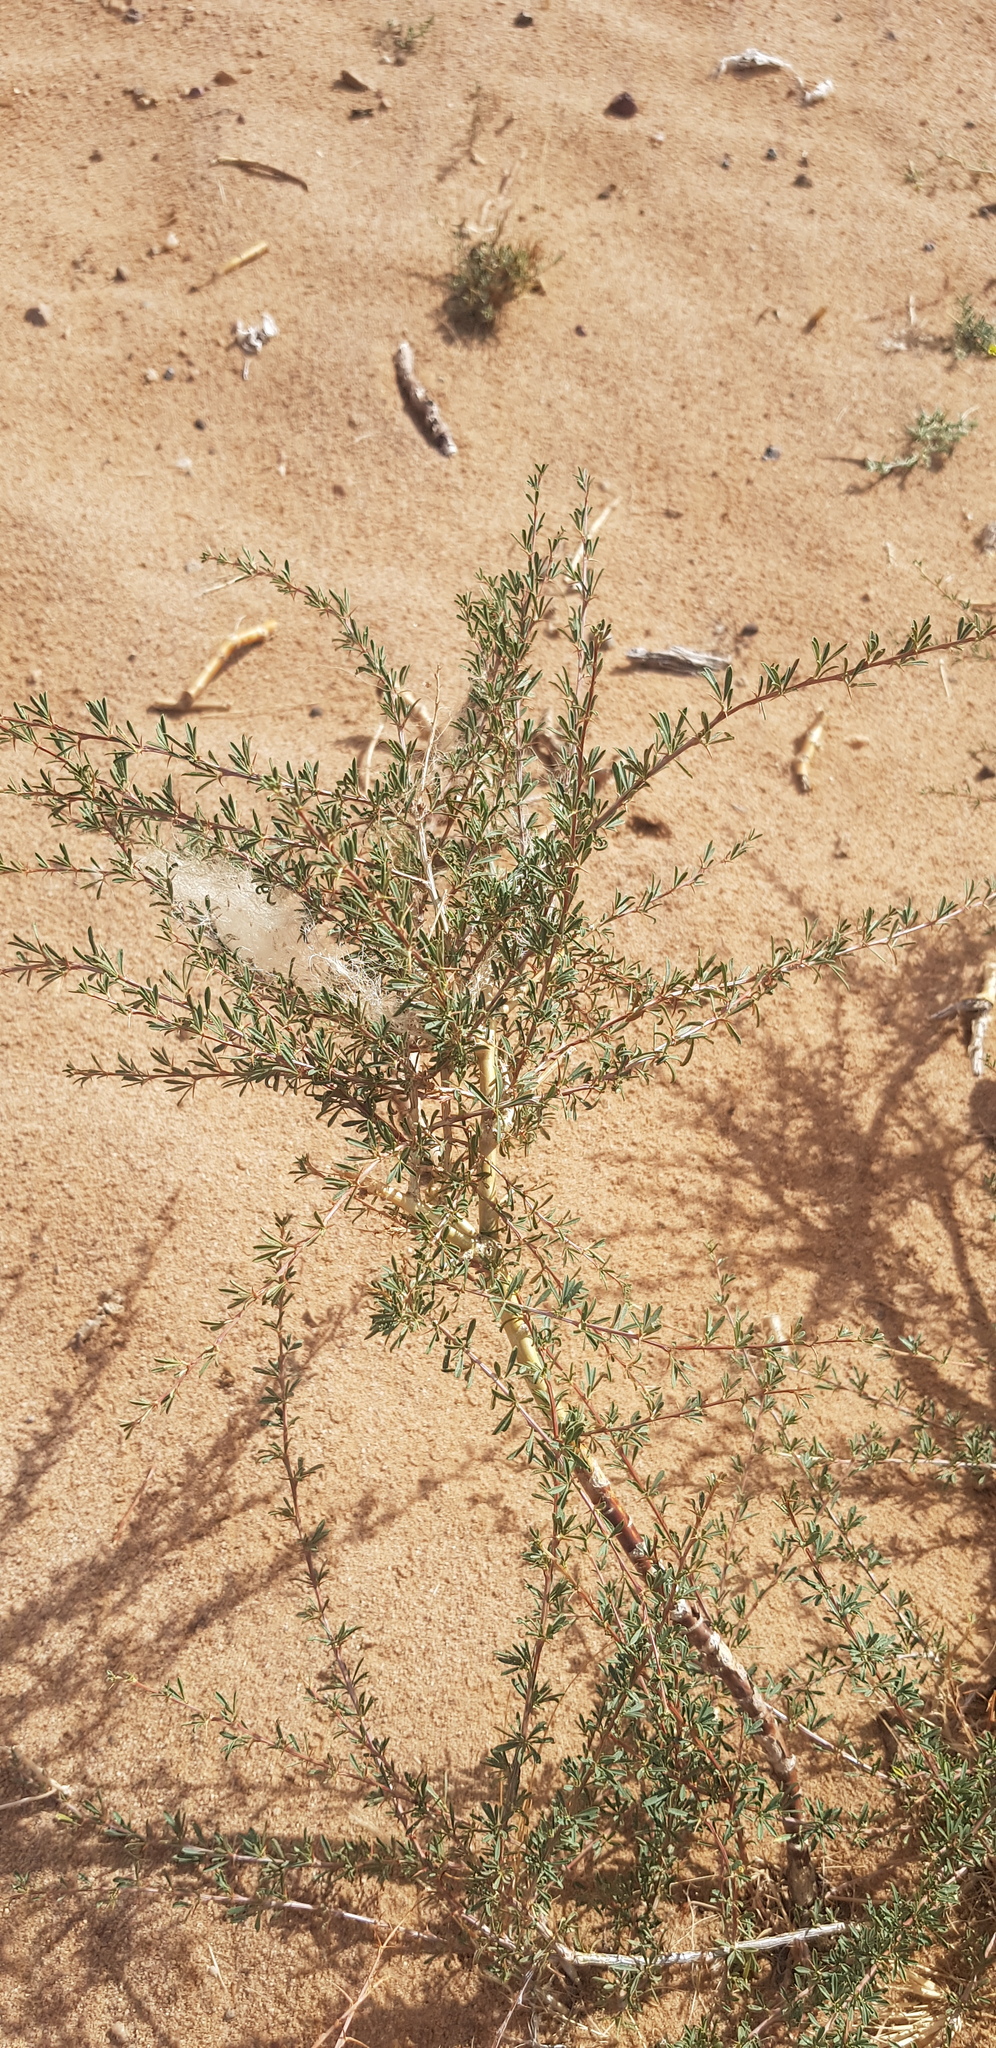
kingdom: Plantae
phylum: Tracheophyta
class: Magnoliopsida
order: Fabales
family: Fabaceae
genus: Caragana
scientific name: Caragana pygmaea
